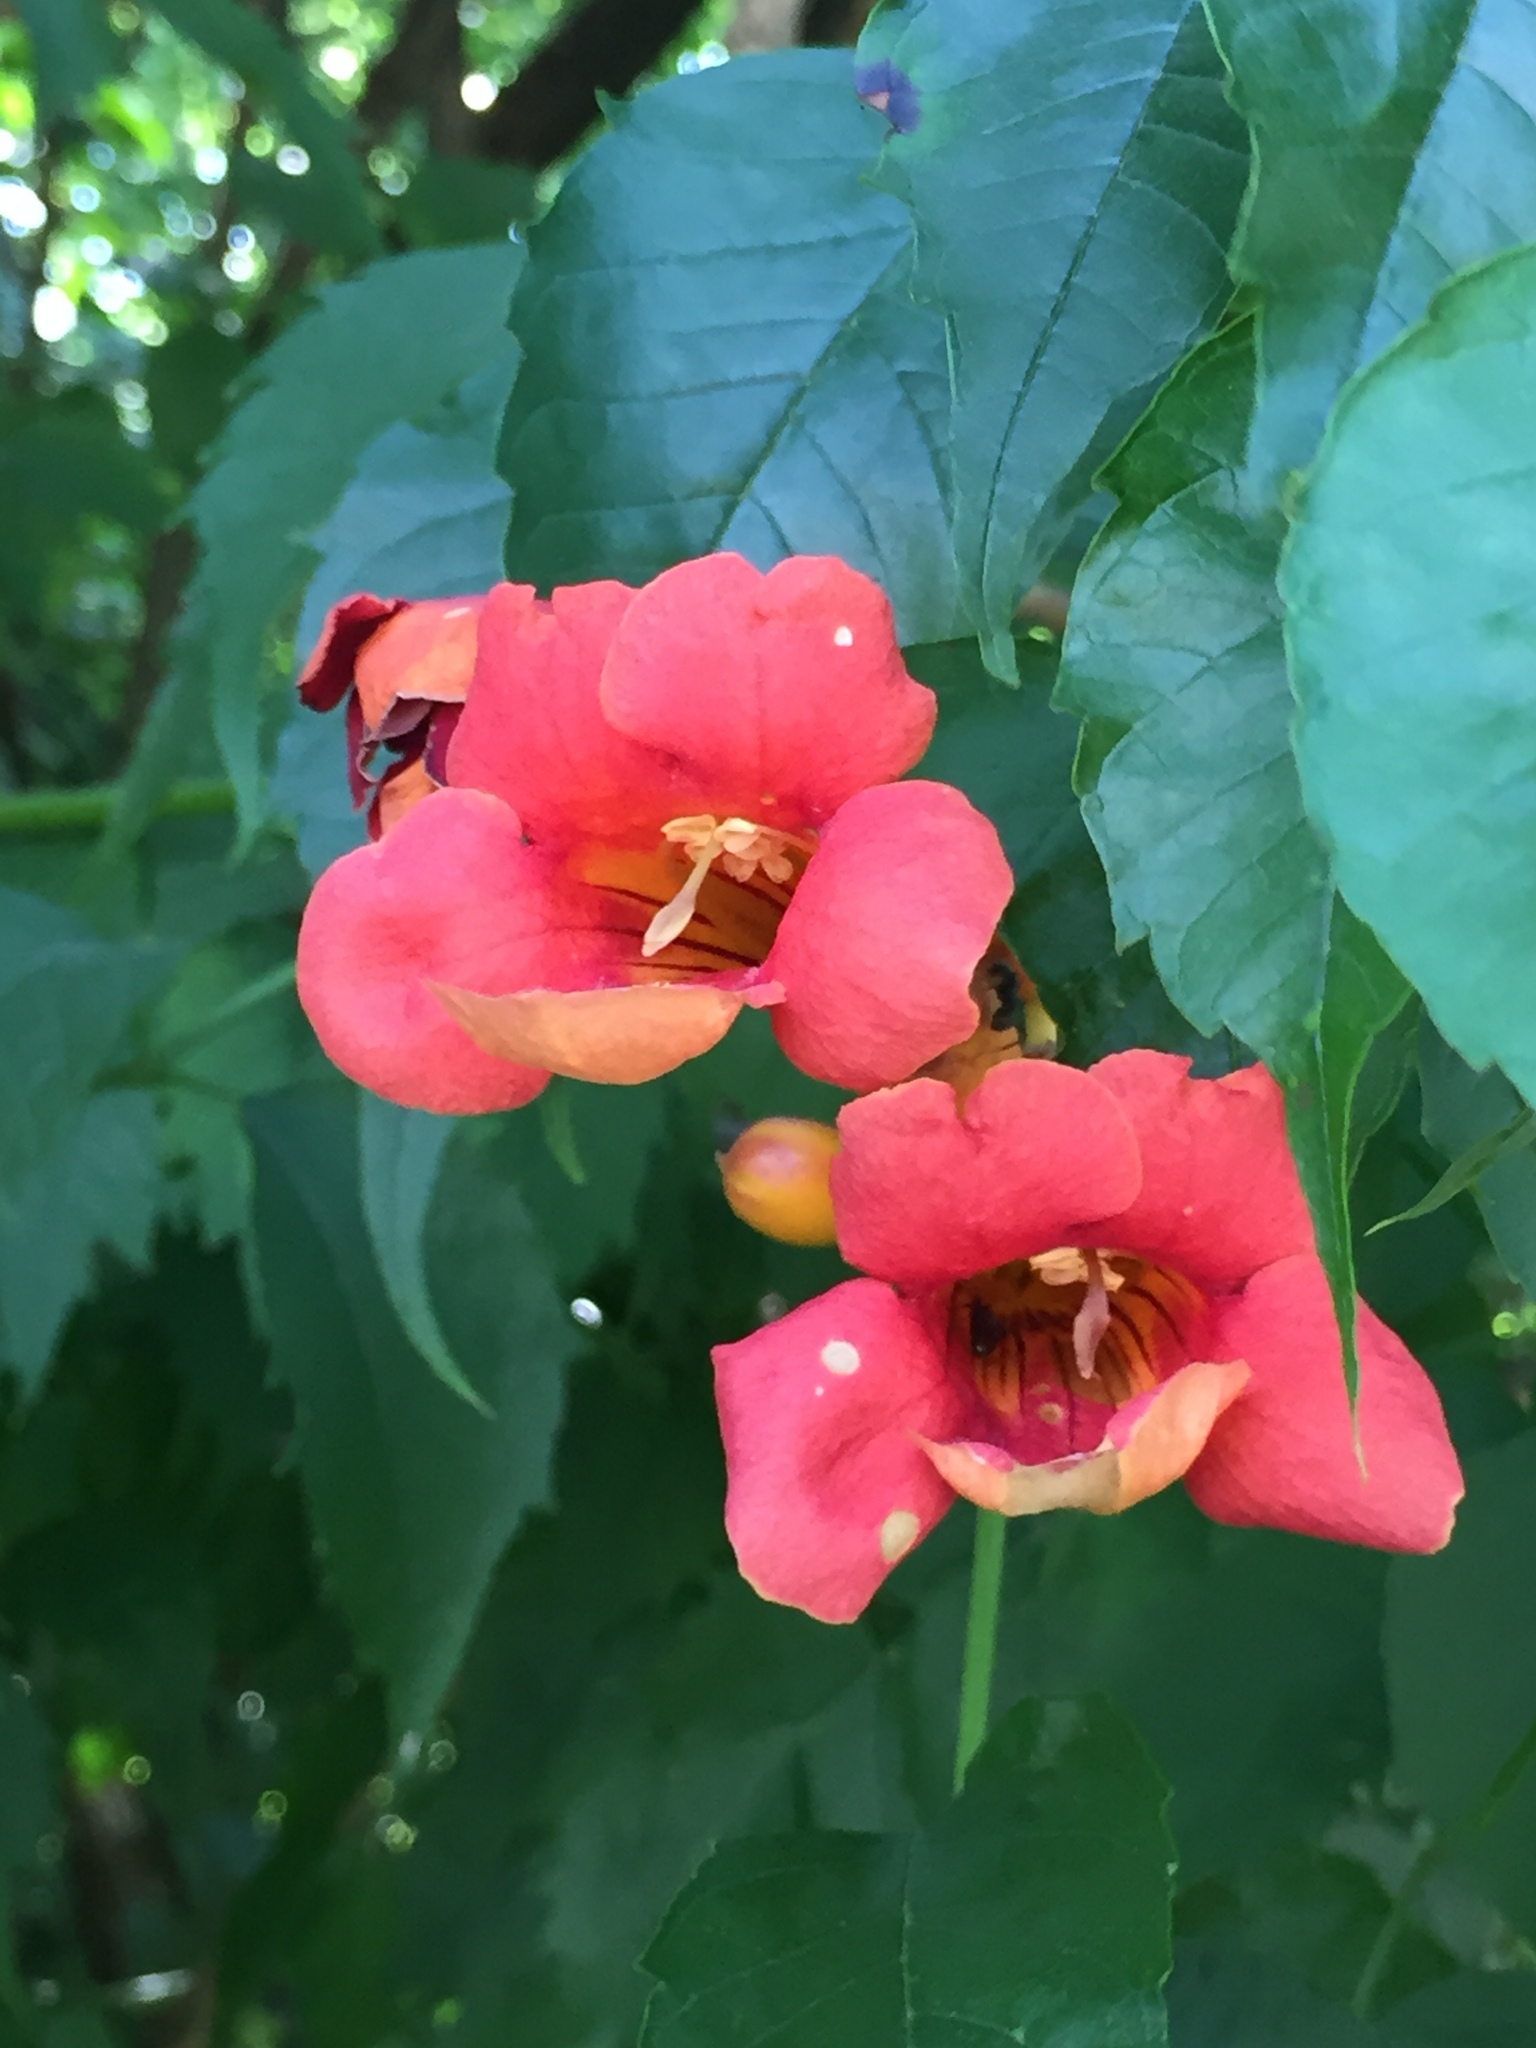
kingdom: Plantae
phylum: Tracheophyta
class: Magnoliopsida
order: Lamiales
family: Bignoniaceae
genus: Campsis
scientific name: Campsis radicans
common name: Trumpet-creeper
